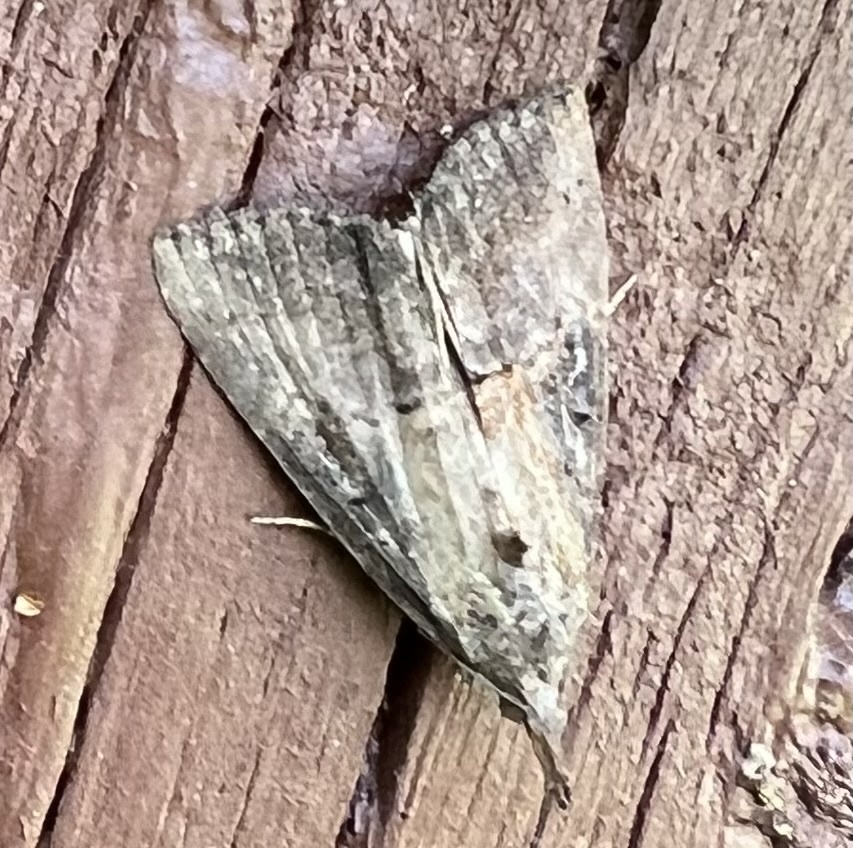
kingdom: Animalia
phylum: Arthropoda
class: Insecta
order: Lepidoptera
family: Erebidae
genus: Hypena
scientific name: Hypena scabra
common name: Green cloverworm
